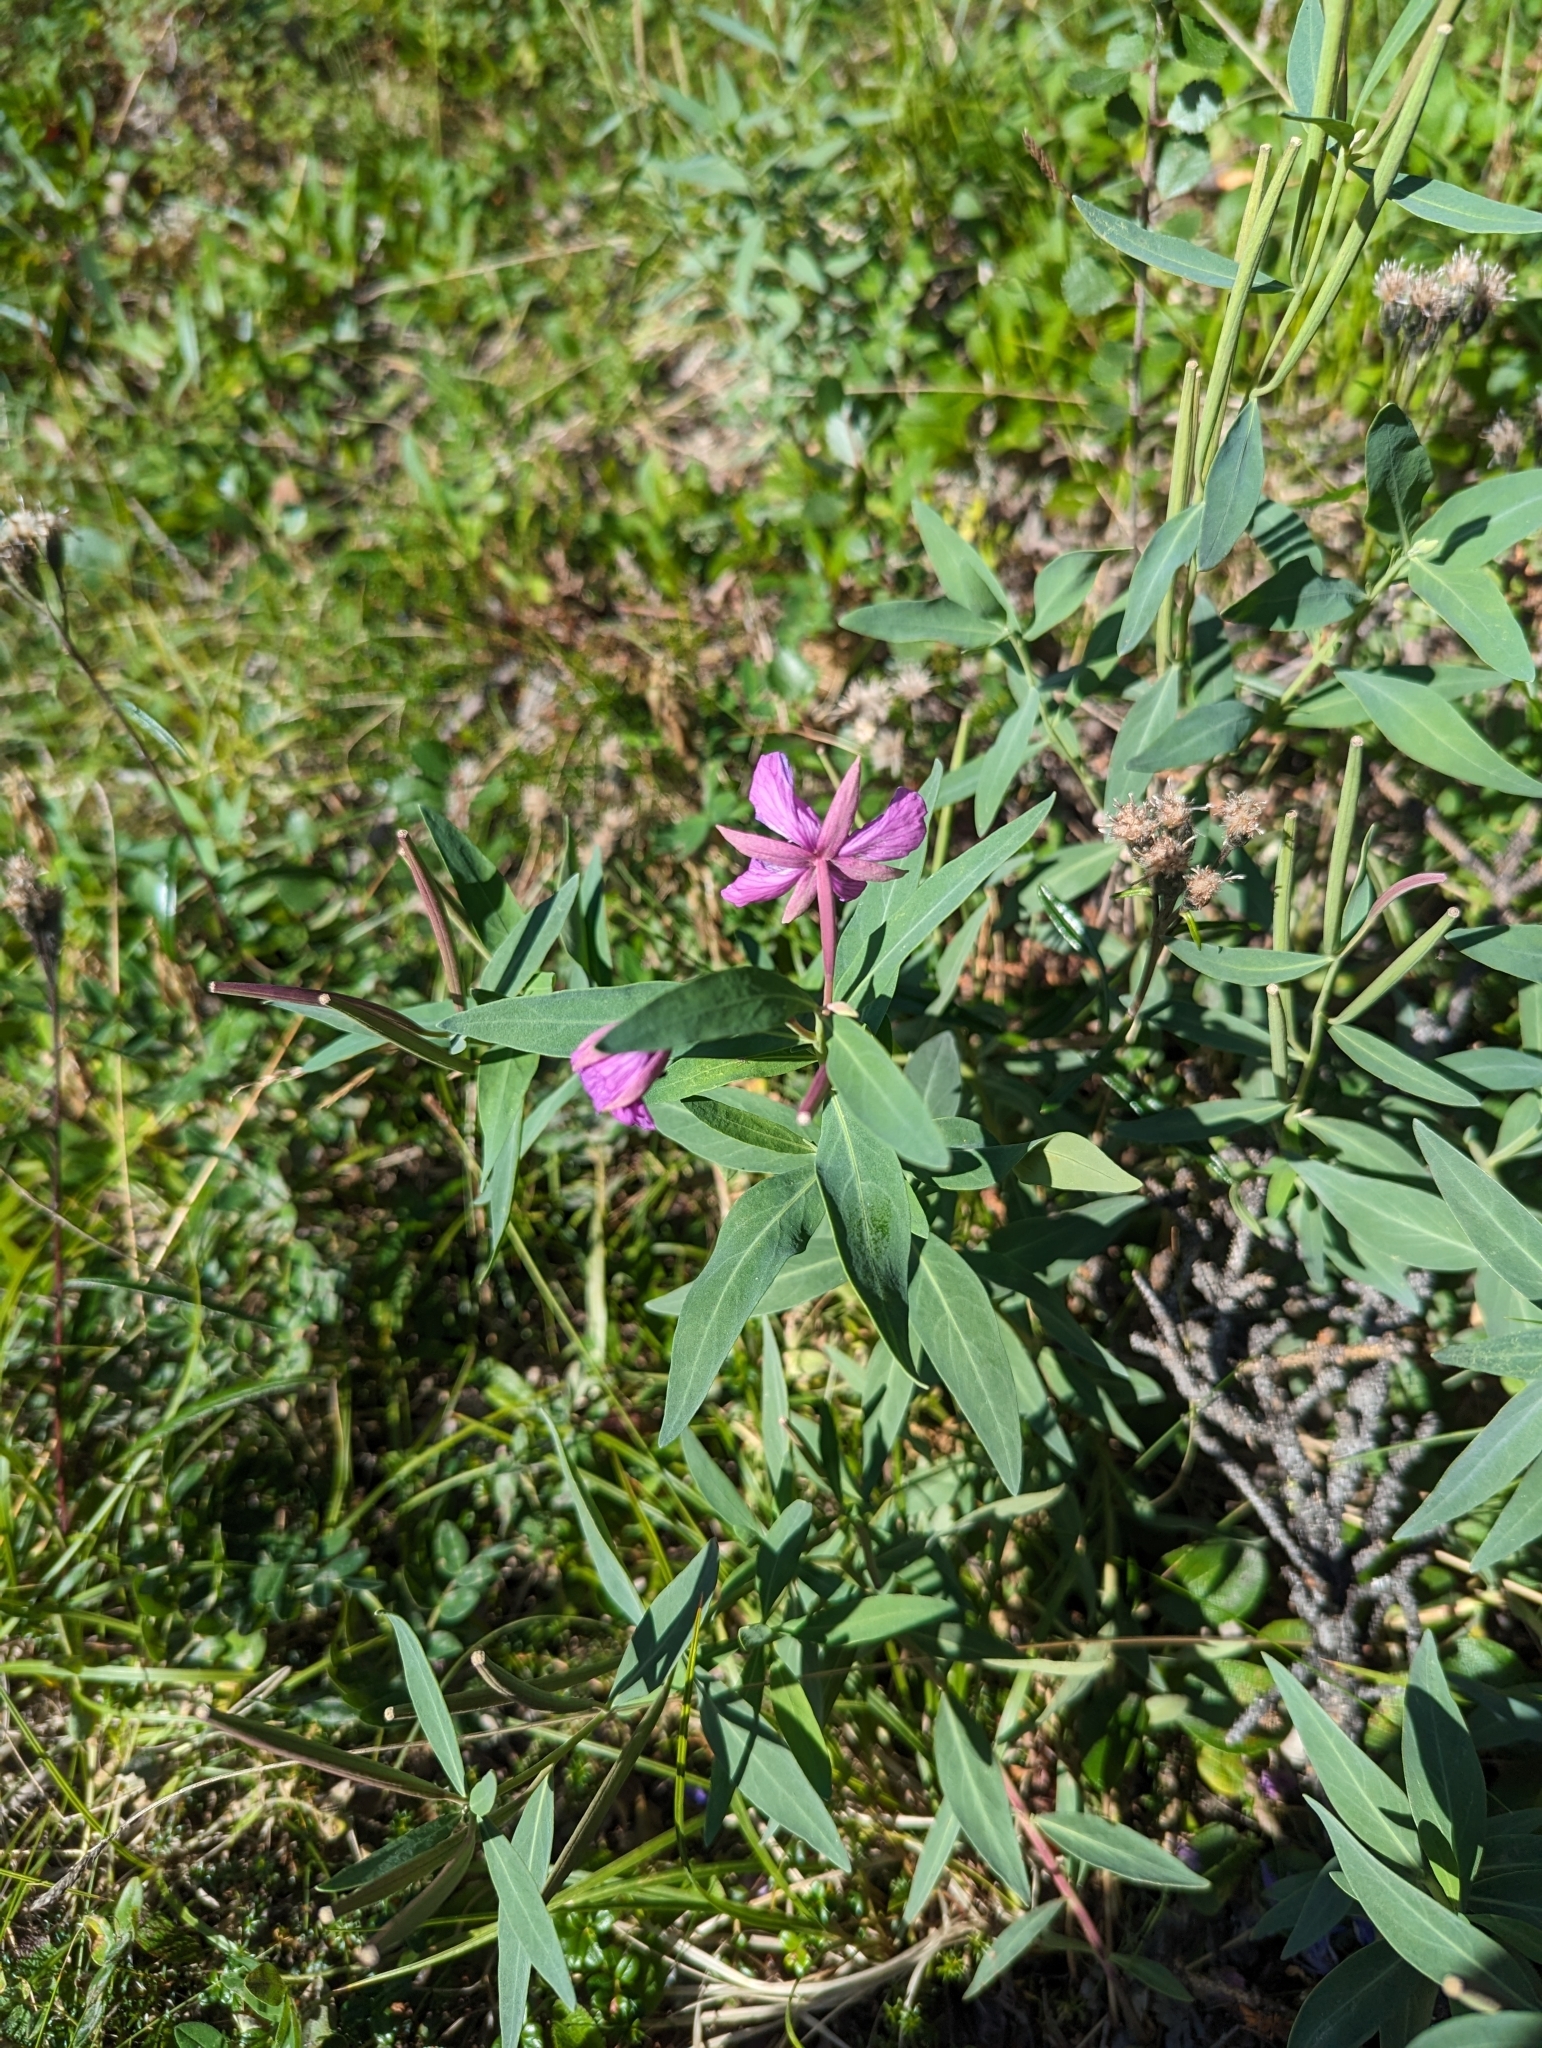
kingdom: Plantae
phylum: Tracheophyta
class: Magnoliopsida
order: Myrtales
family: Onagraceae
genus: Chamaenerion
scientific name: Chamaenerion latifolium
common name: Dwarf fireweed
